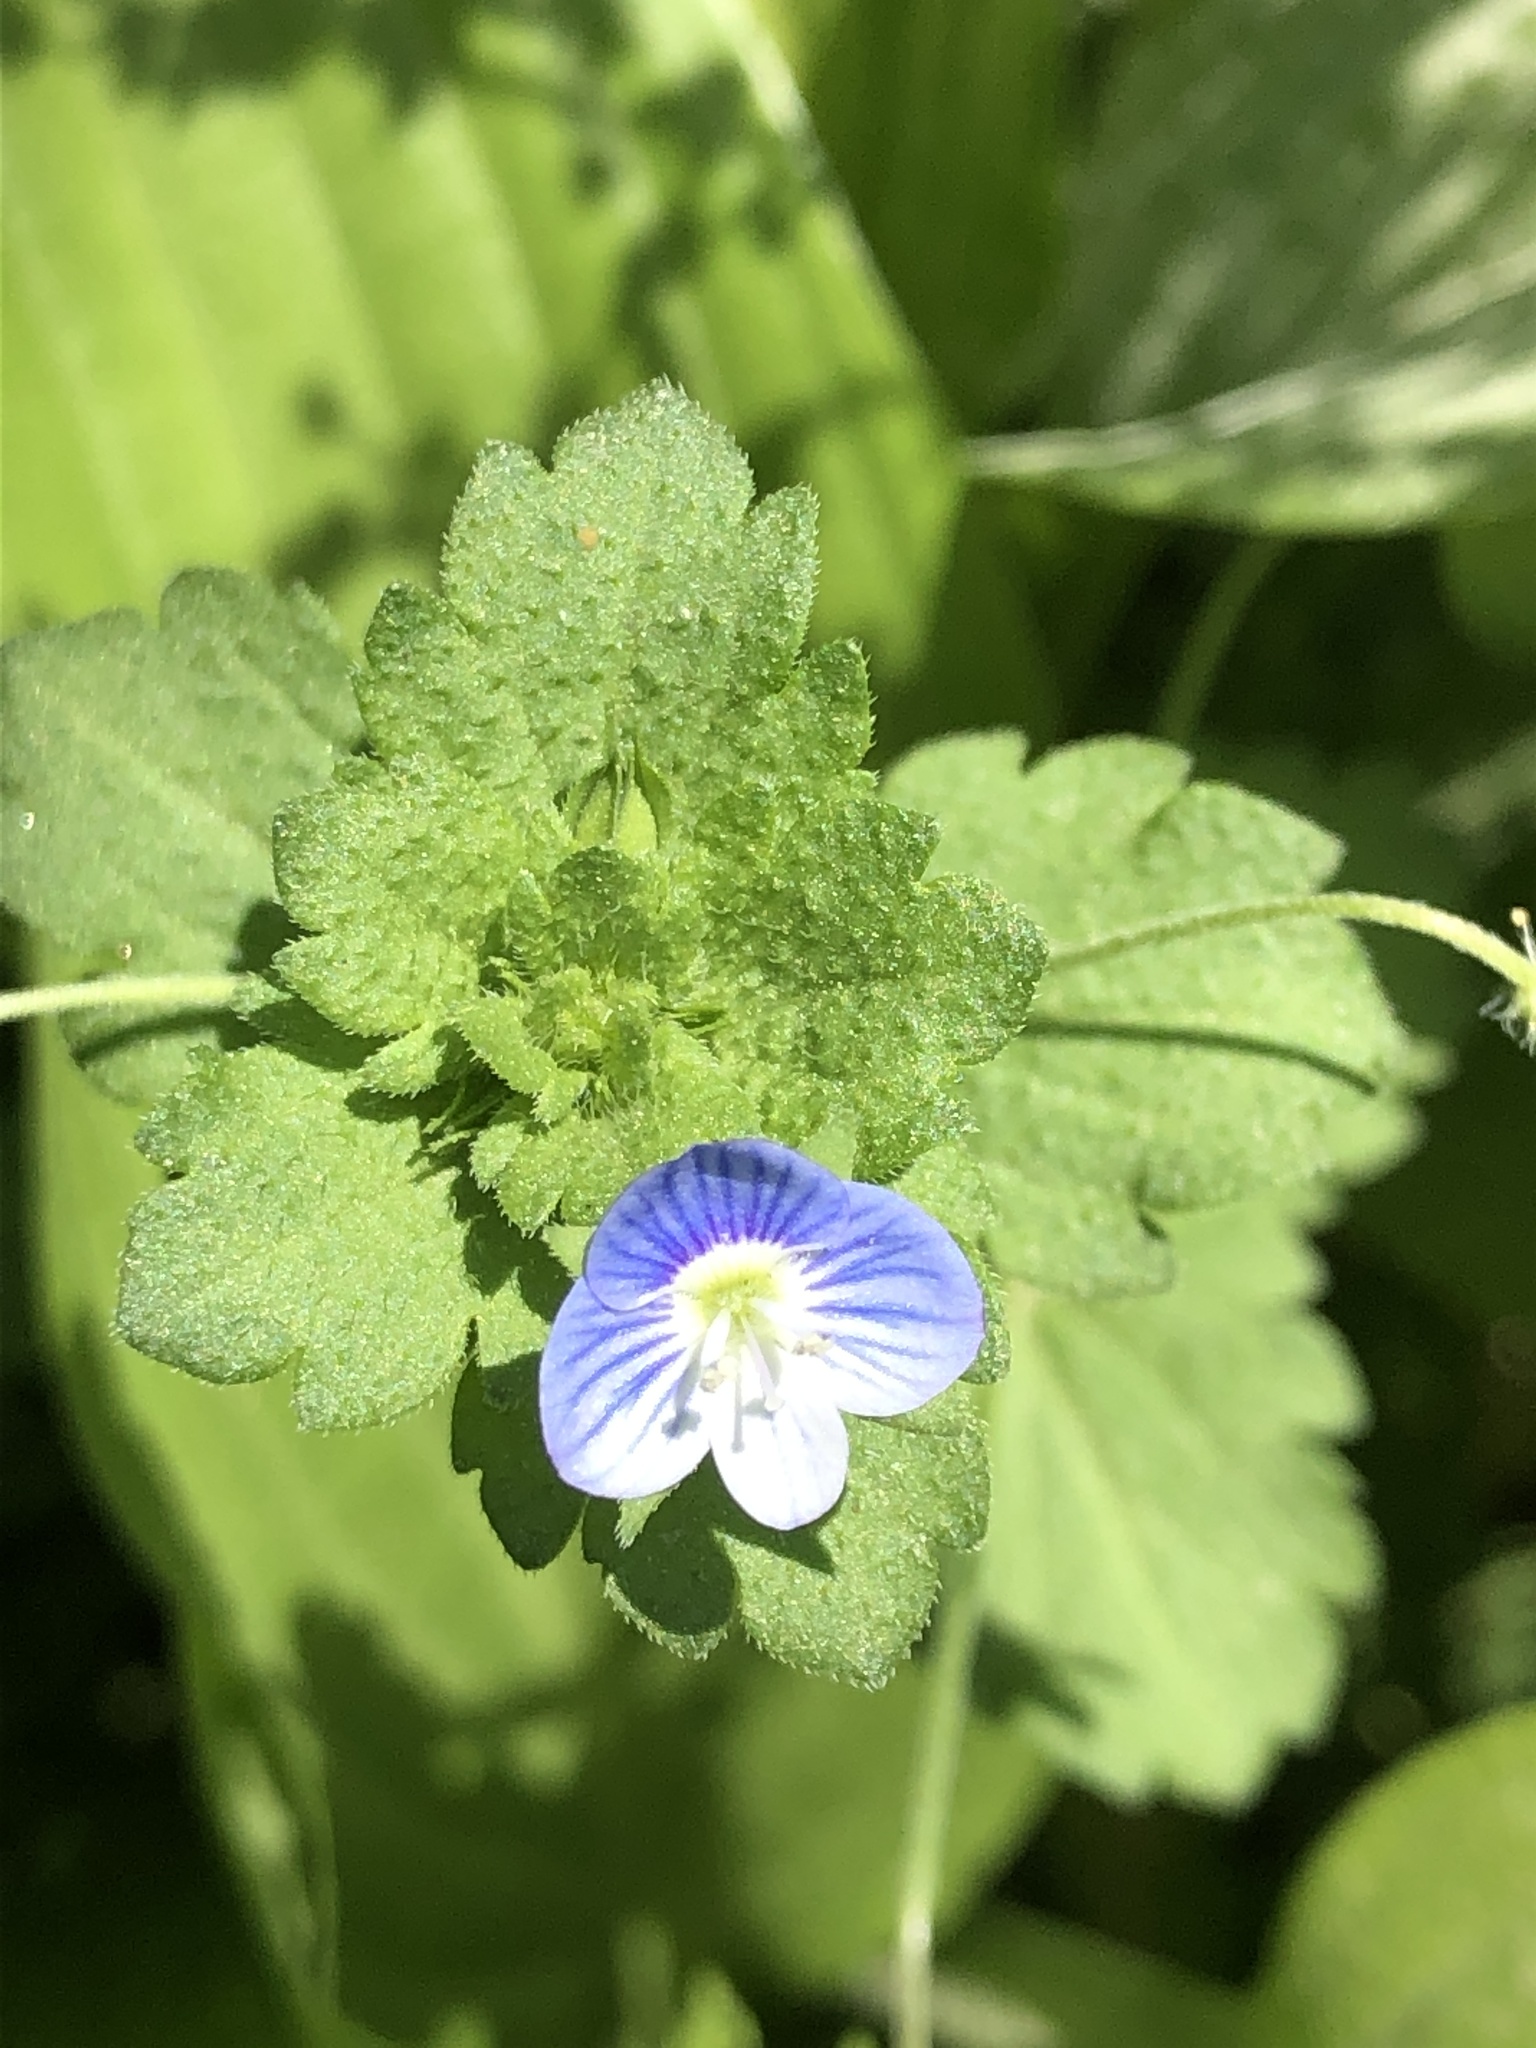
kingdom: Plantae
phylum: Tracheophyta
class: Magnoliopsida
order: Lamiales
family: Plantaginaceae
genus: Veronica
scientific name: Veronica persica
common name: Common field-speedwell
